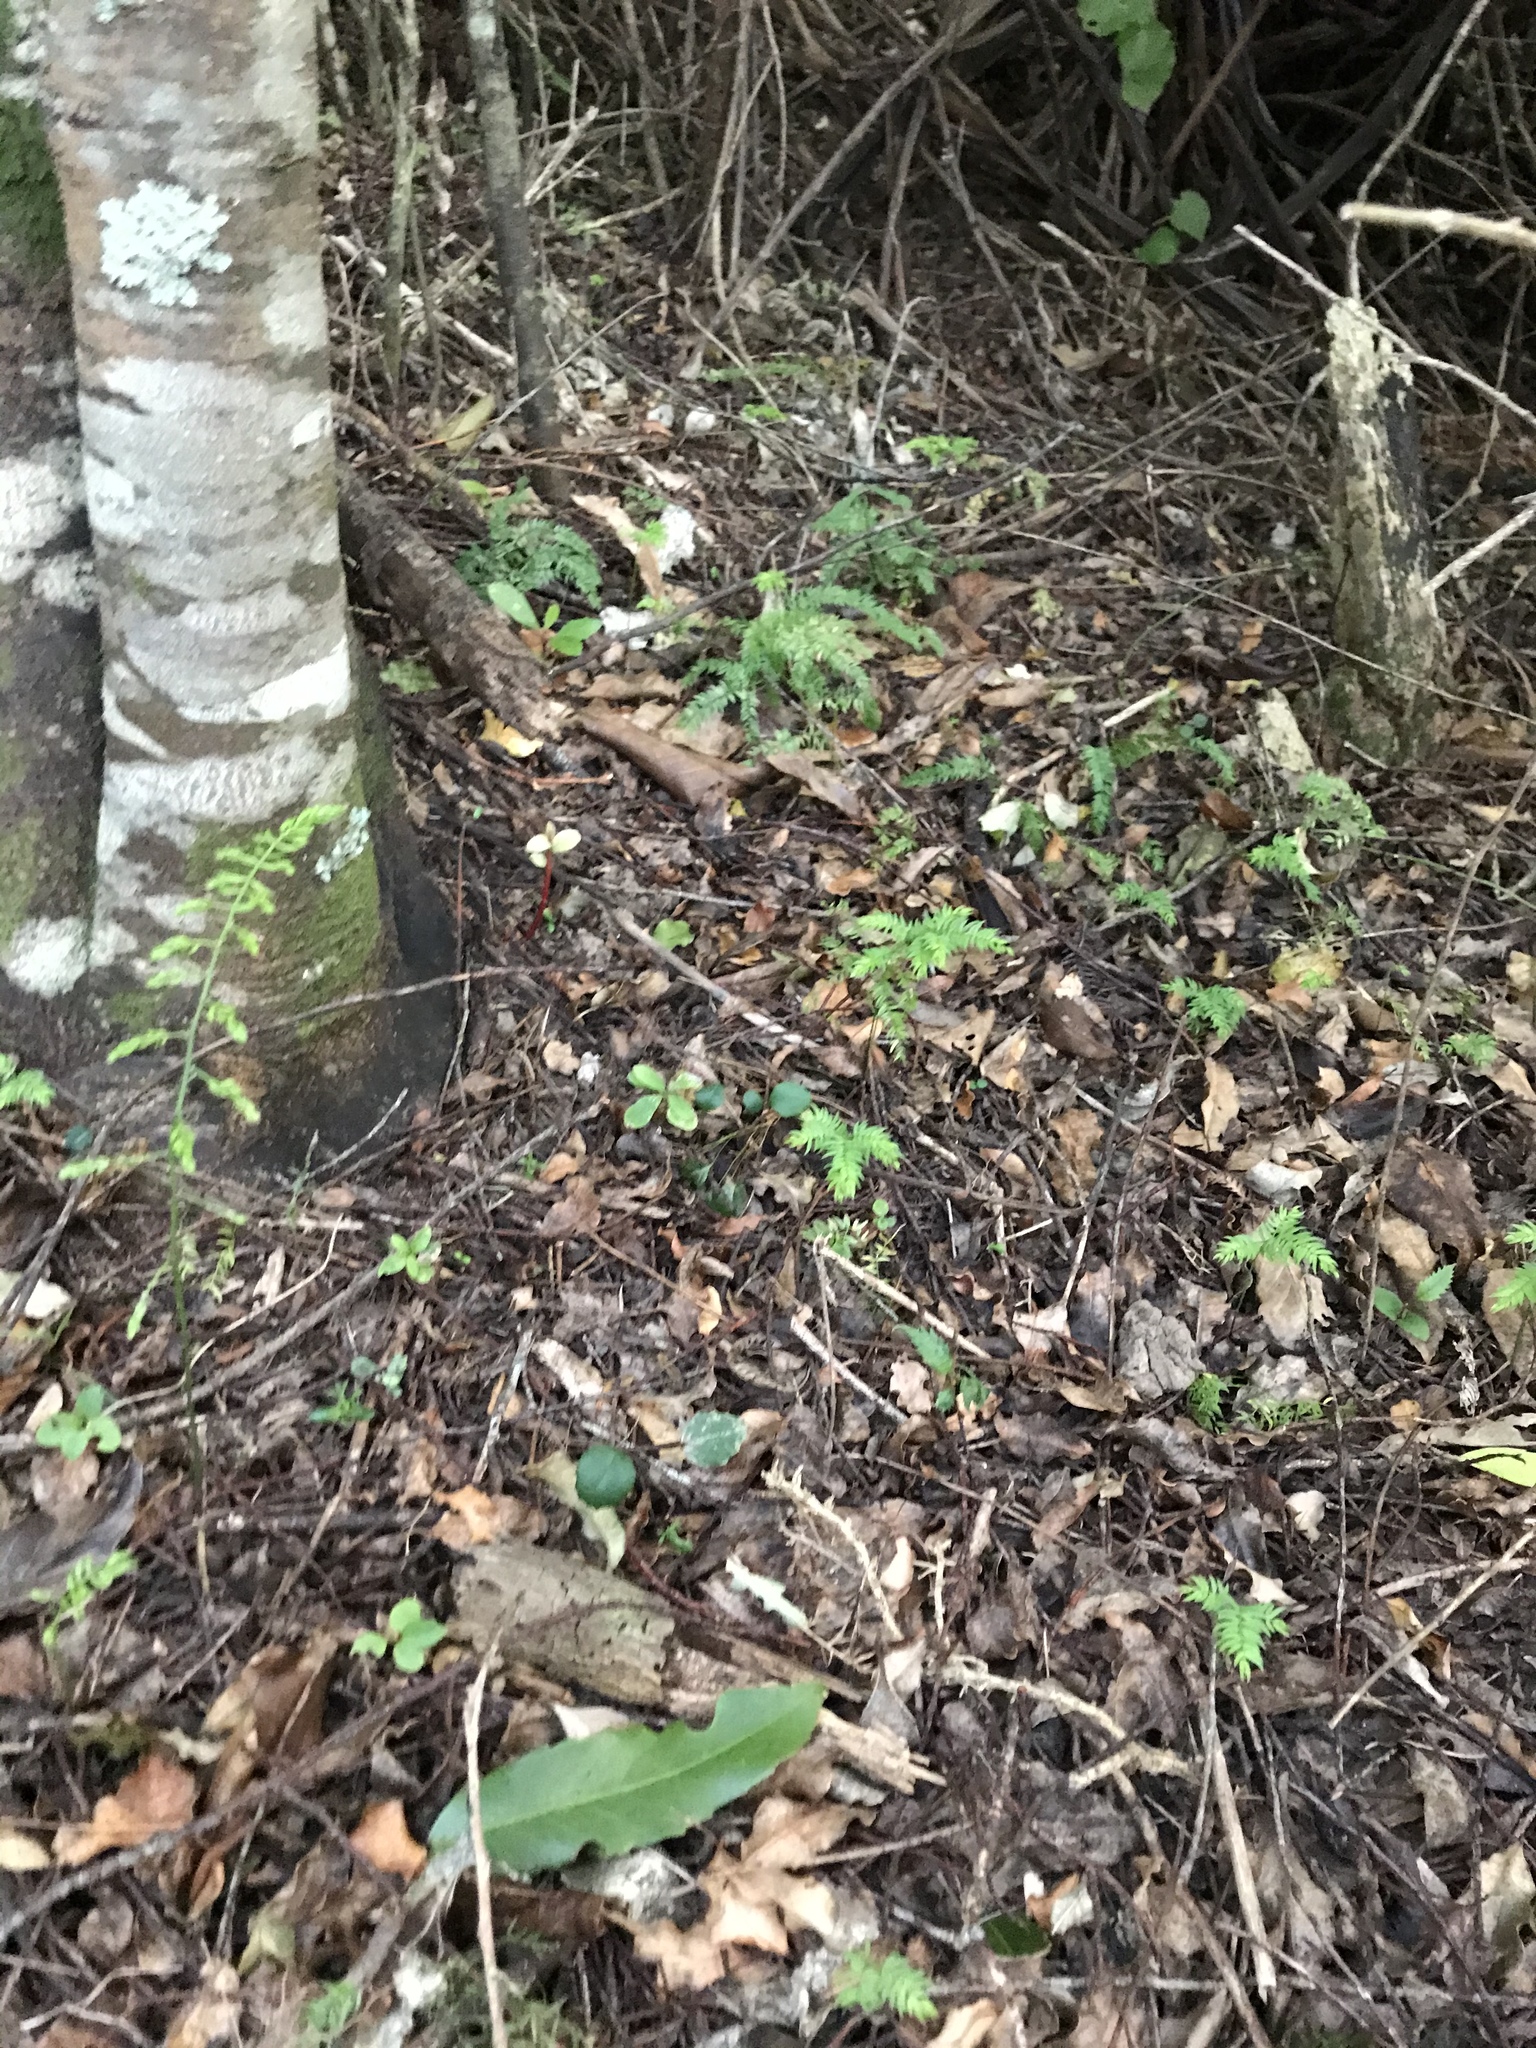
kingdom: Plantae
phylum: Tracheophyta
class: Liliopsida
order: Asparagales
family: Asparagaceae
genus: Asparagus
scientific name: Asparagus scandens
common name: Asparagus-fern
